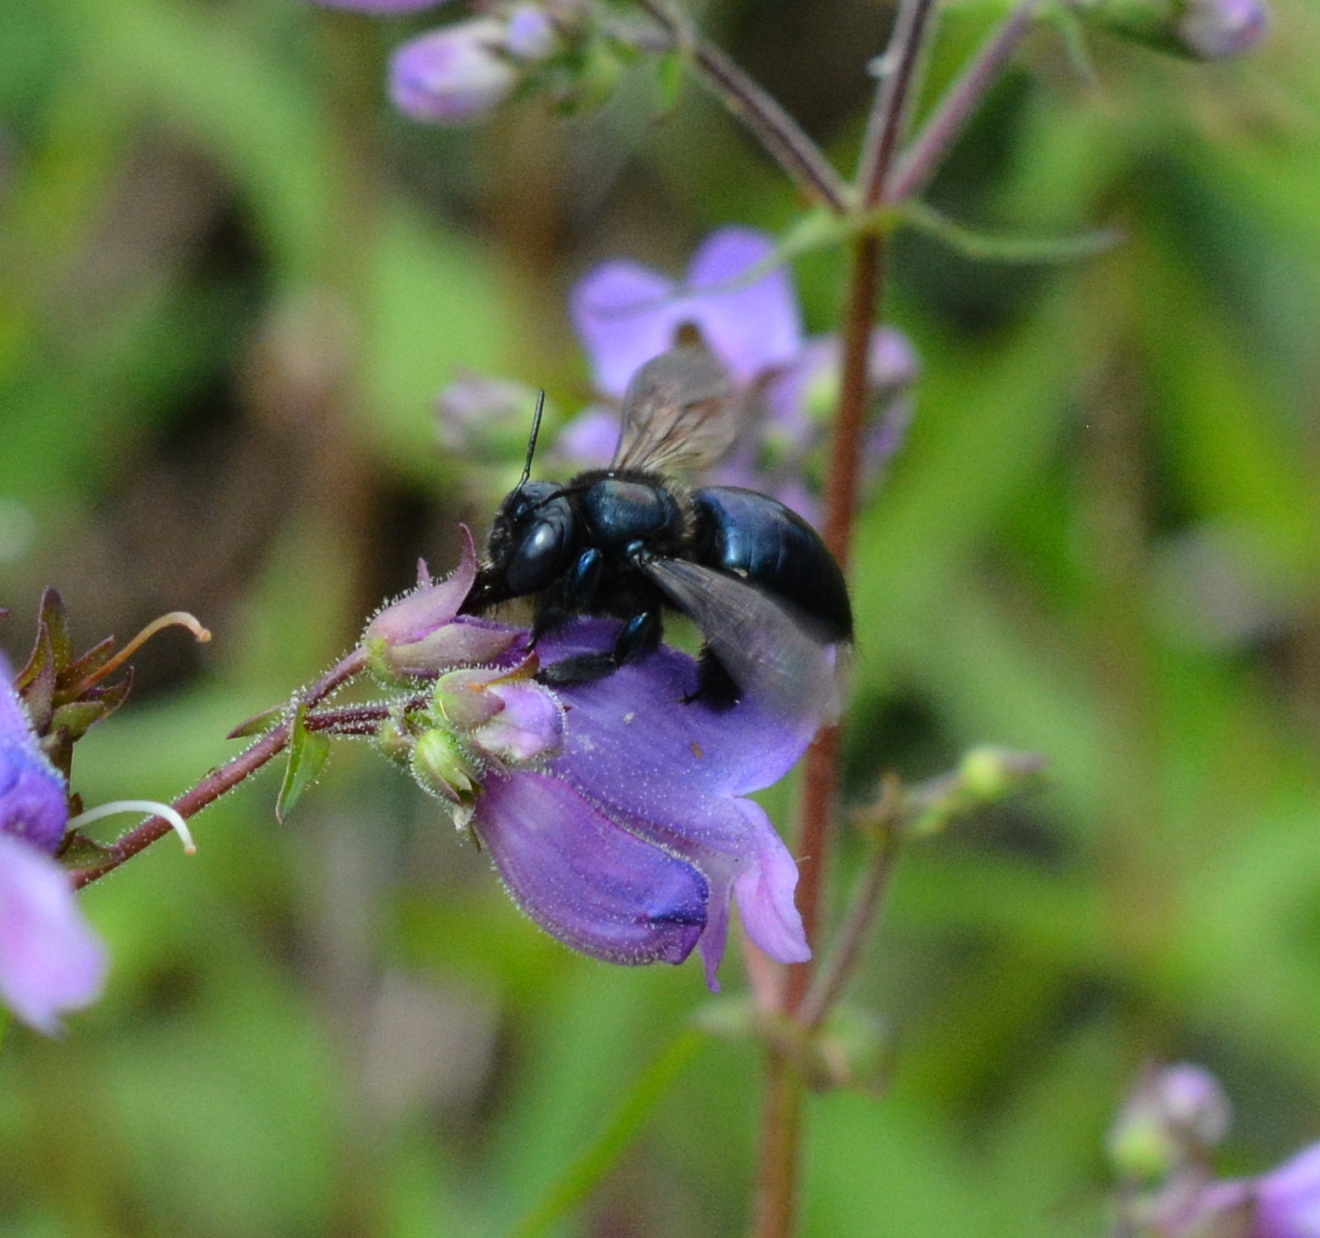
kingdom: Animalia
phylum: Arthropoda
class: Insecta
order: Hymenoptera
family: Apidae
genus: Xylocopa
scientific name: Xylocopa micans
